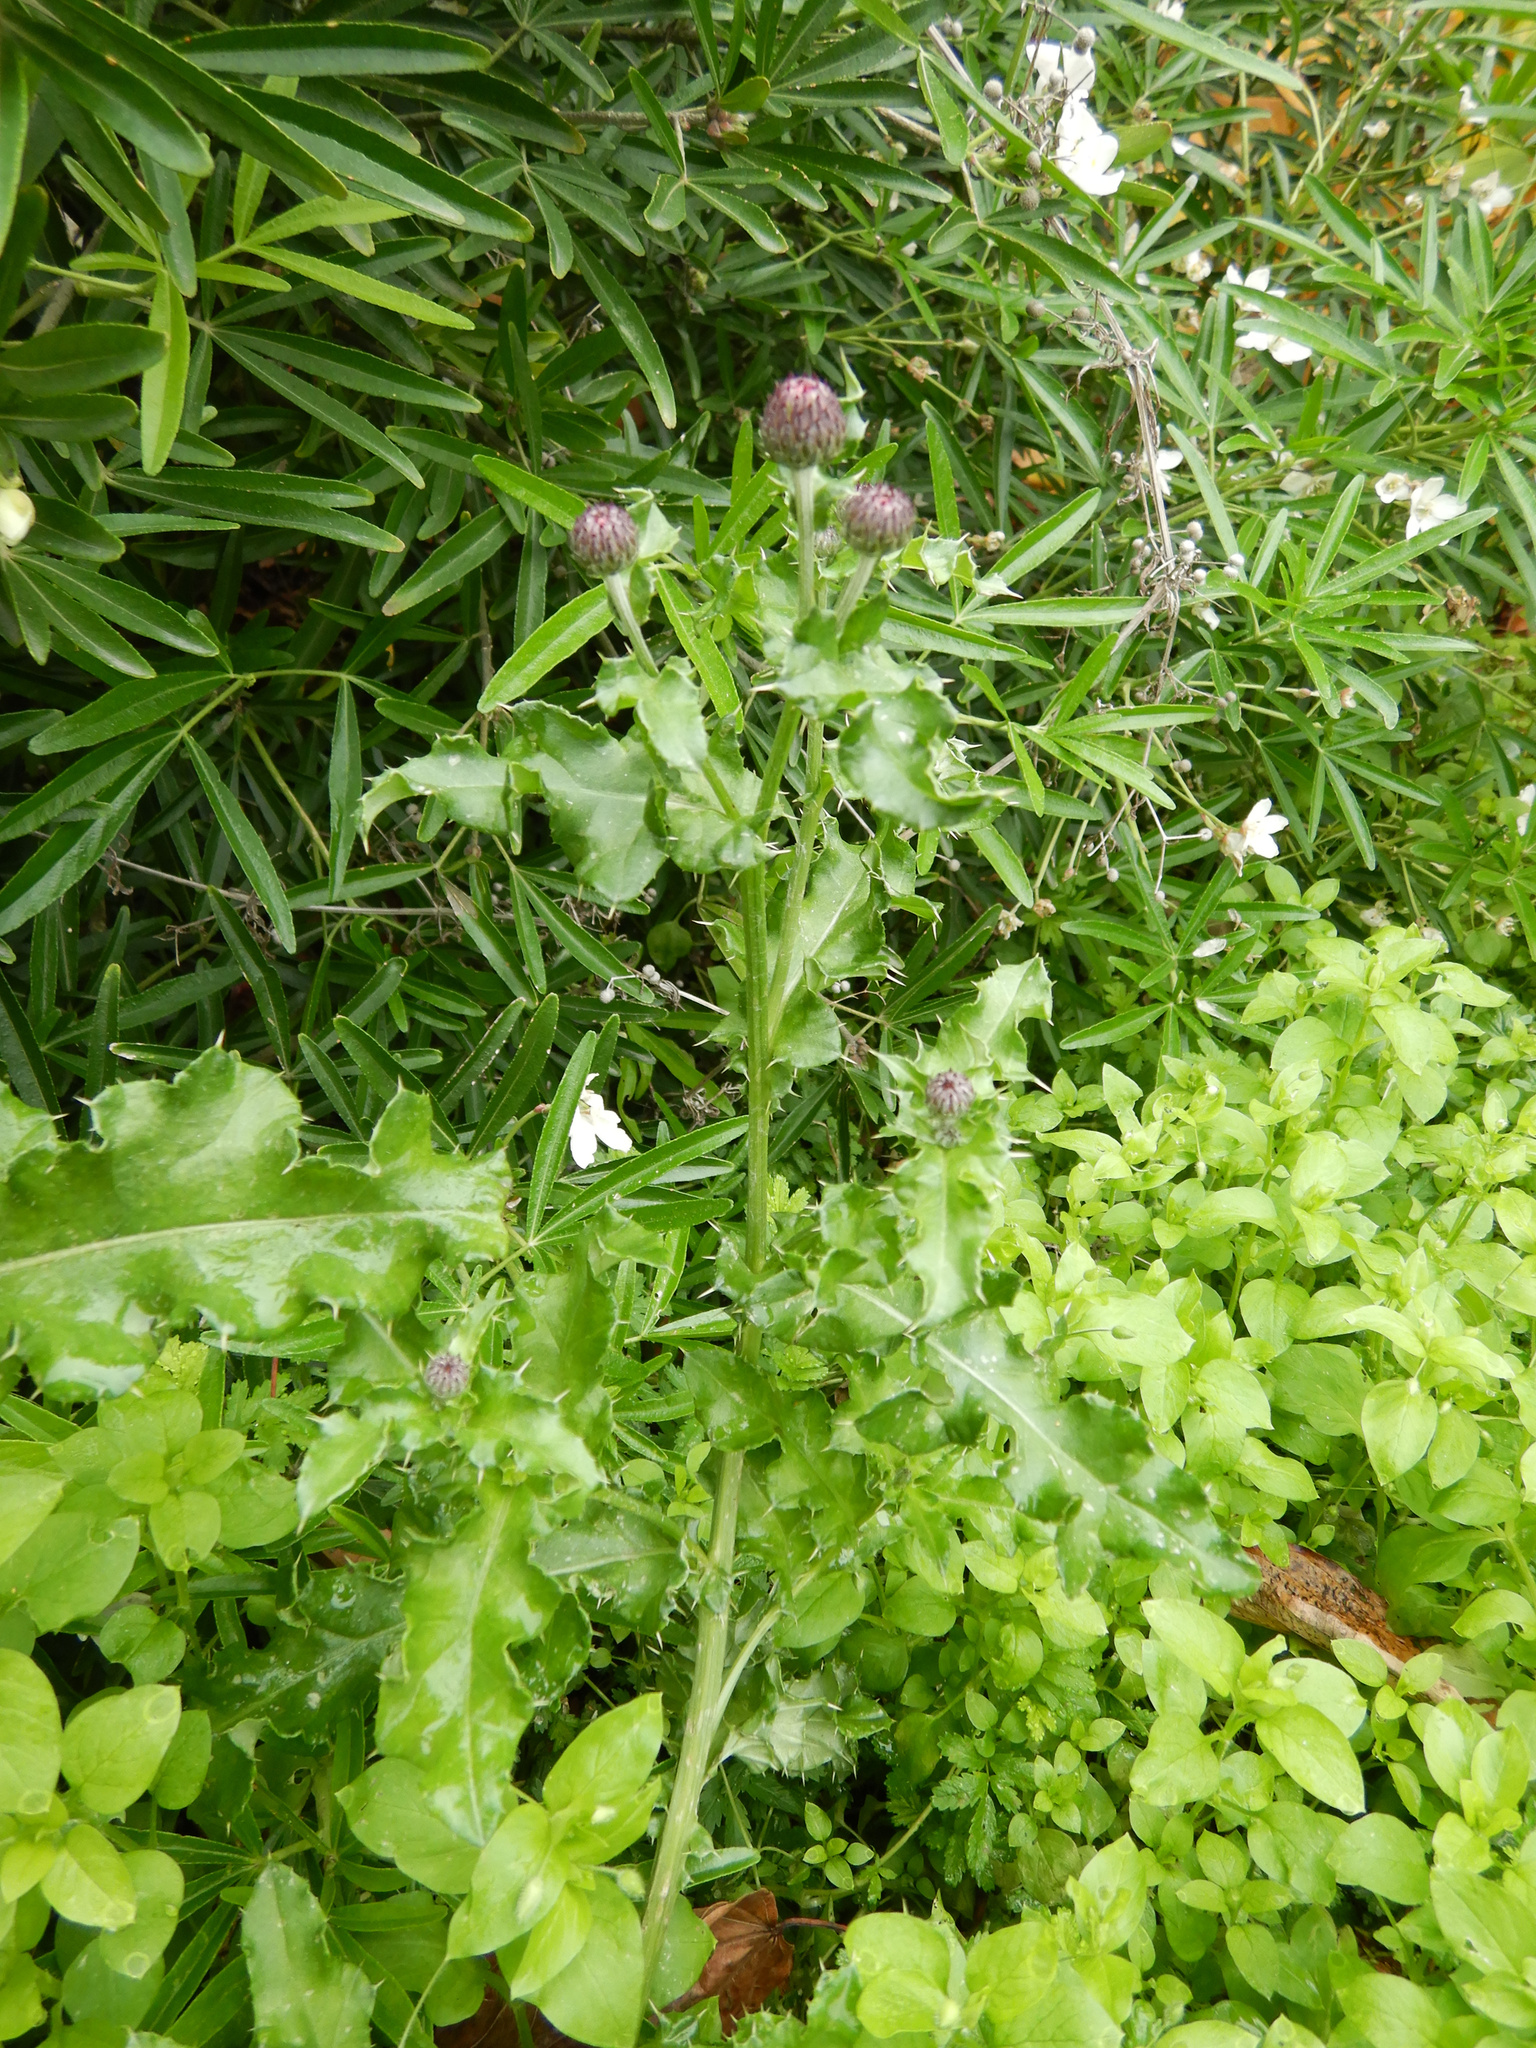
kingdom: Plantae
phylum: Tracheophyta
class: Magnoliopsida
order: Asterales
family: Asteraceae
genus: Cirsium
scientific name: Cirsium arvense
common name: Creeping thistle
